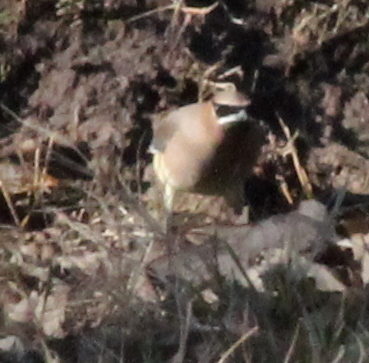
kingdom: Animalia
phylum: Chordata
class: Aves
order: Passeriformes
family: Bombycillidae
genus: Bombycilla
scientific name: Bombycilla cedrorum
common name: Cedar waxwing
